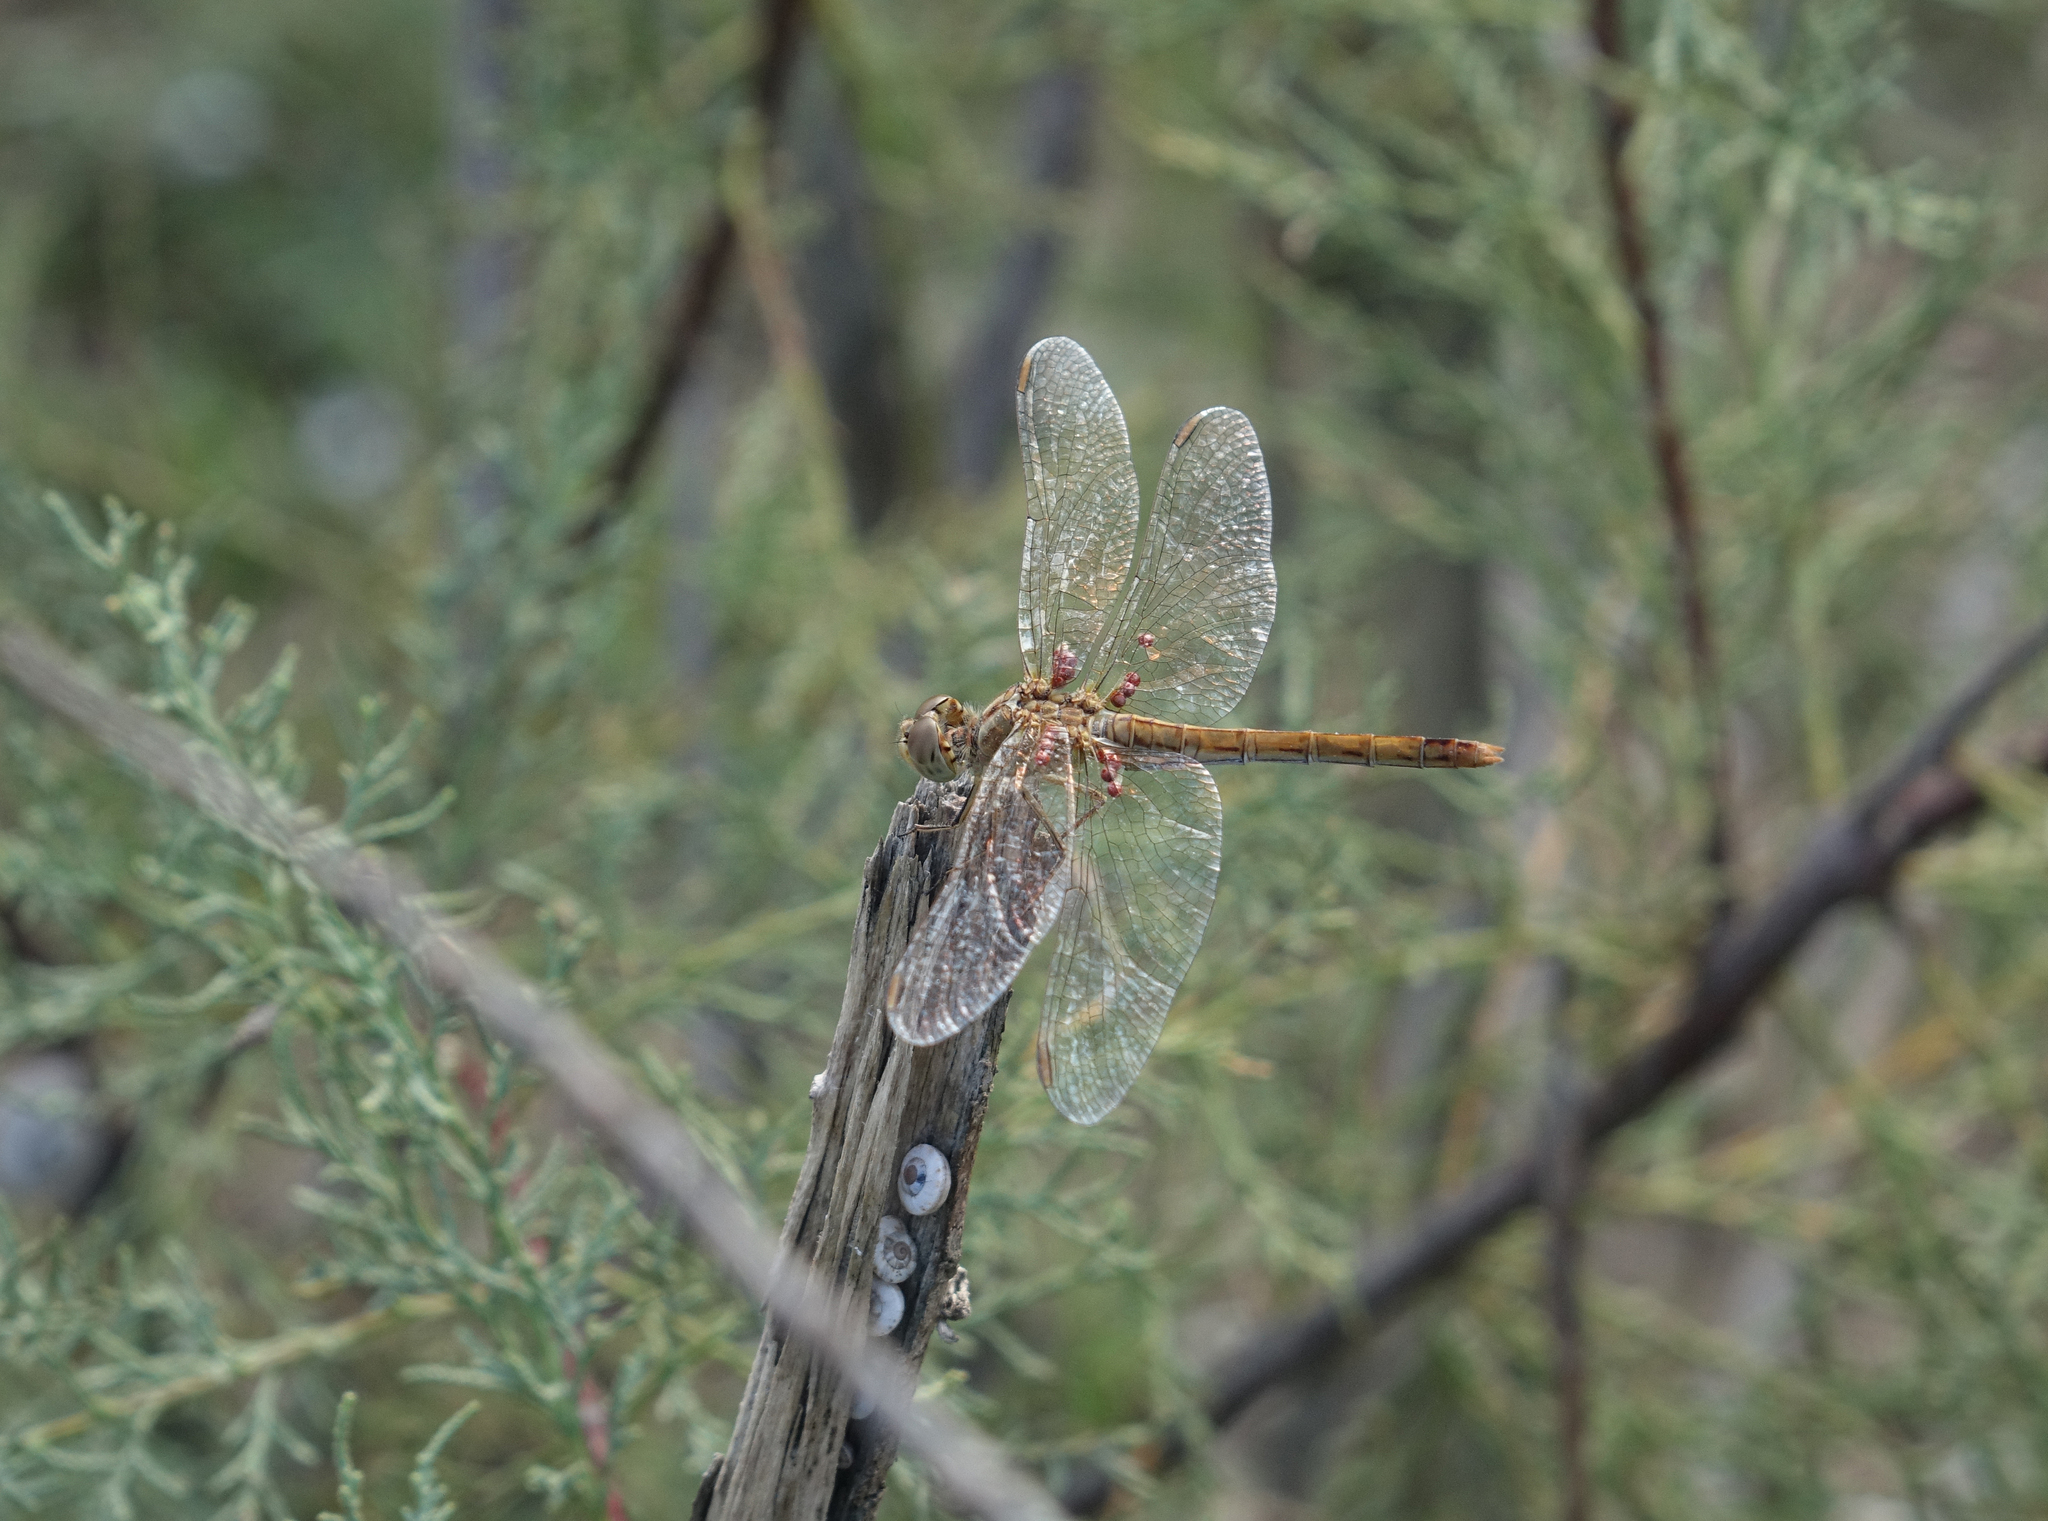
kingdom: Animalia
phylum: Arthropoda
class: Insecta
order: Odonata
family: Libellulidae
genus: Sympetrum
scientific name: Sympetrum meridionale
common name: Southern darter
